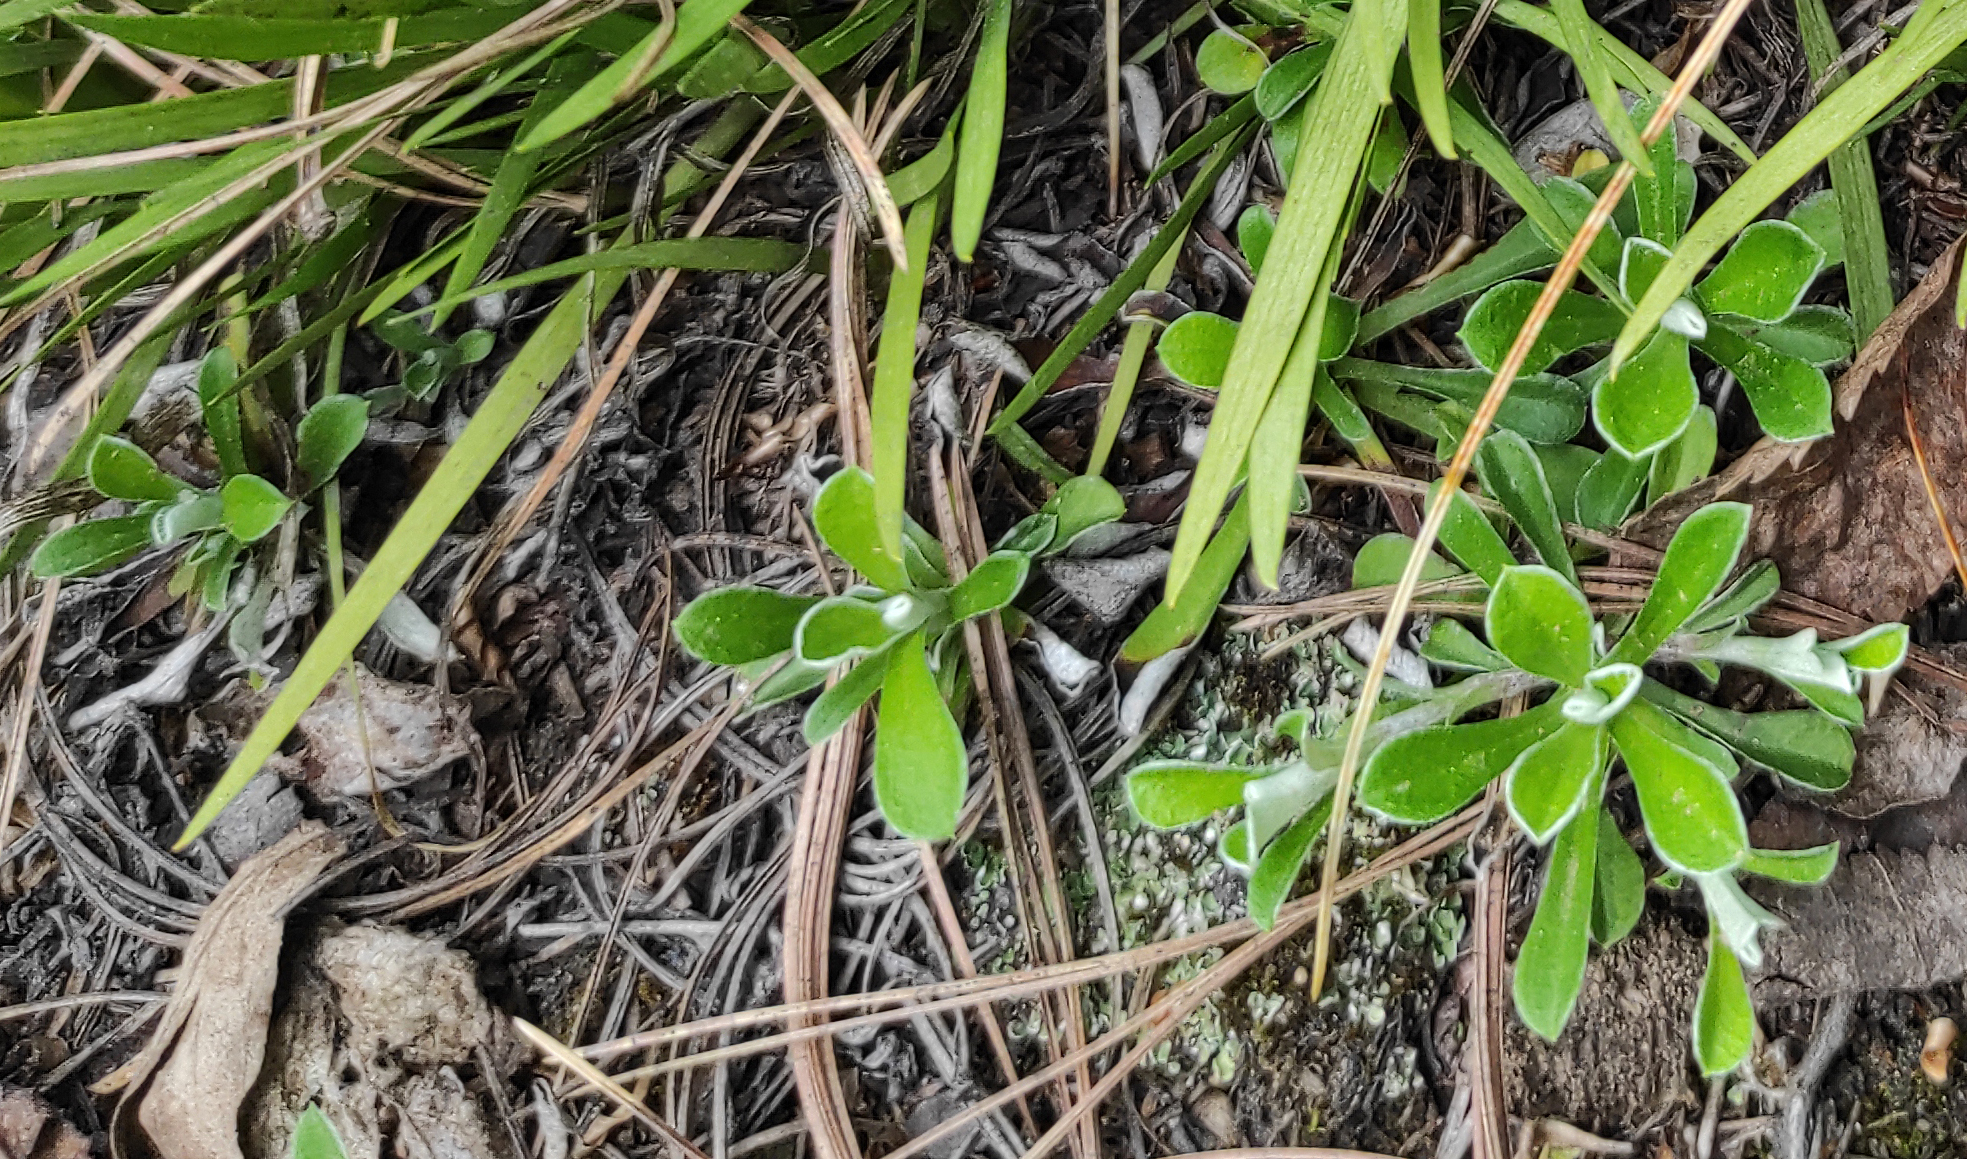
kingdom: Plantae
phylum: Tracheophyta
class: Magnoliopsida
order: Asterales
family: Asteraceae
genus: Antennaria
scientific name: Antennaria dioica
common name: Mountain everlasting
